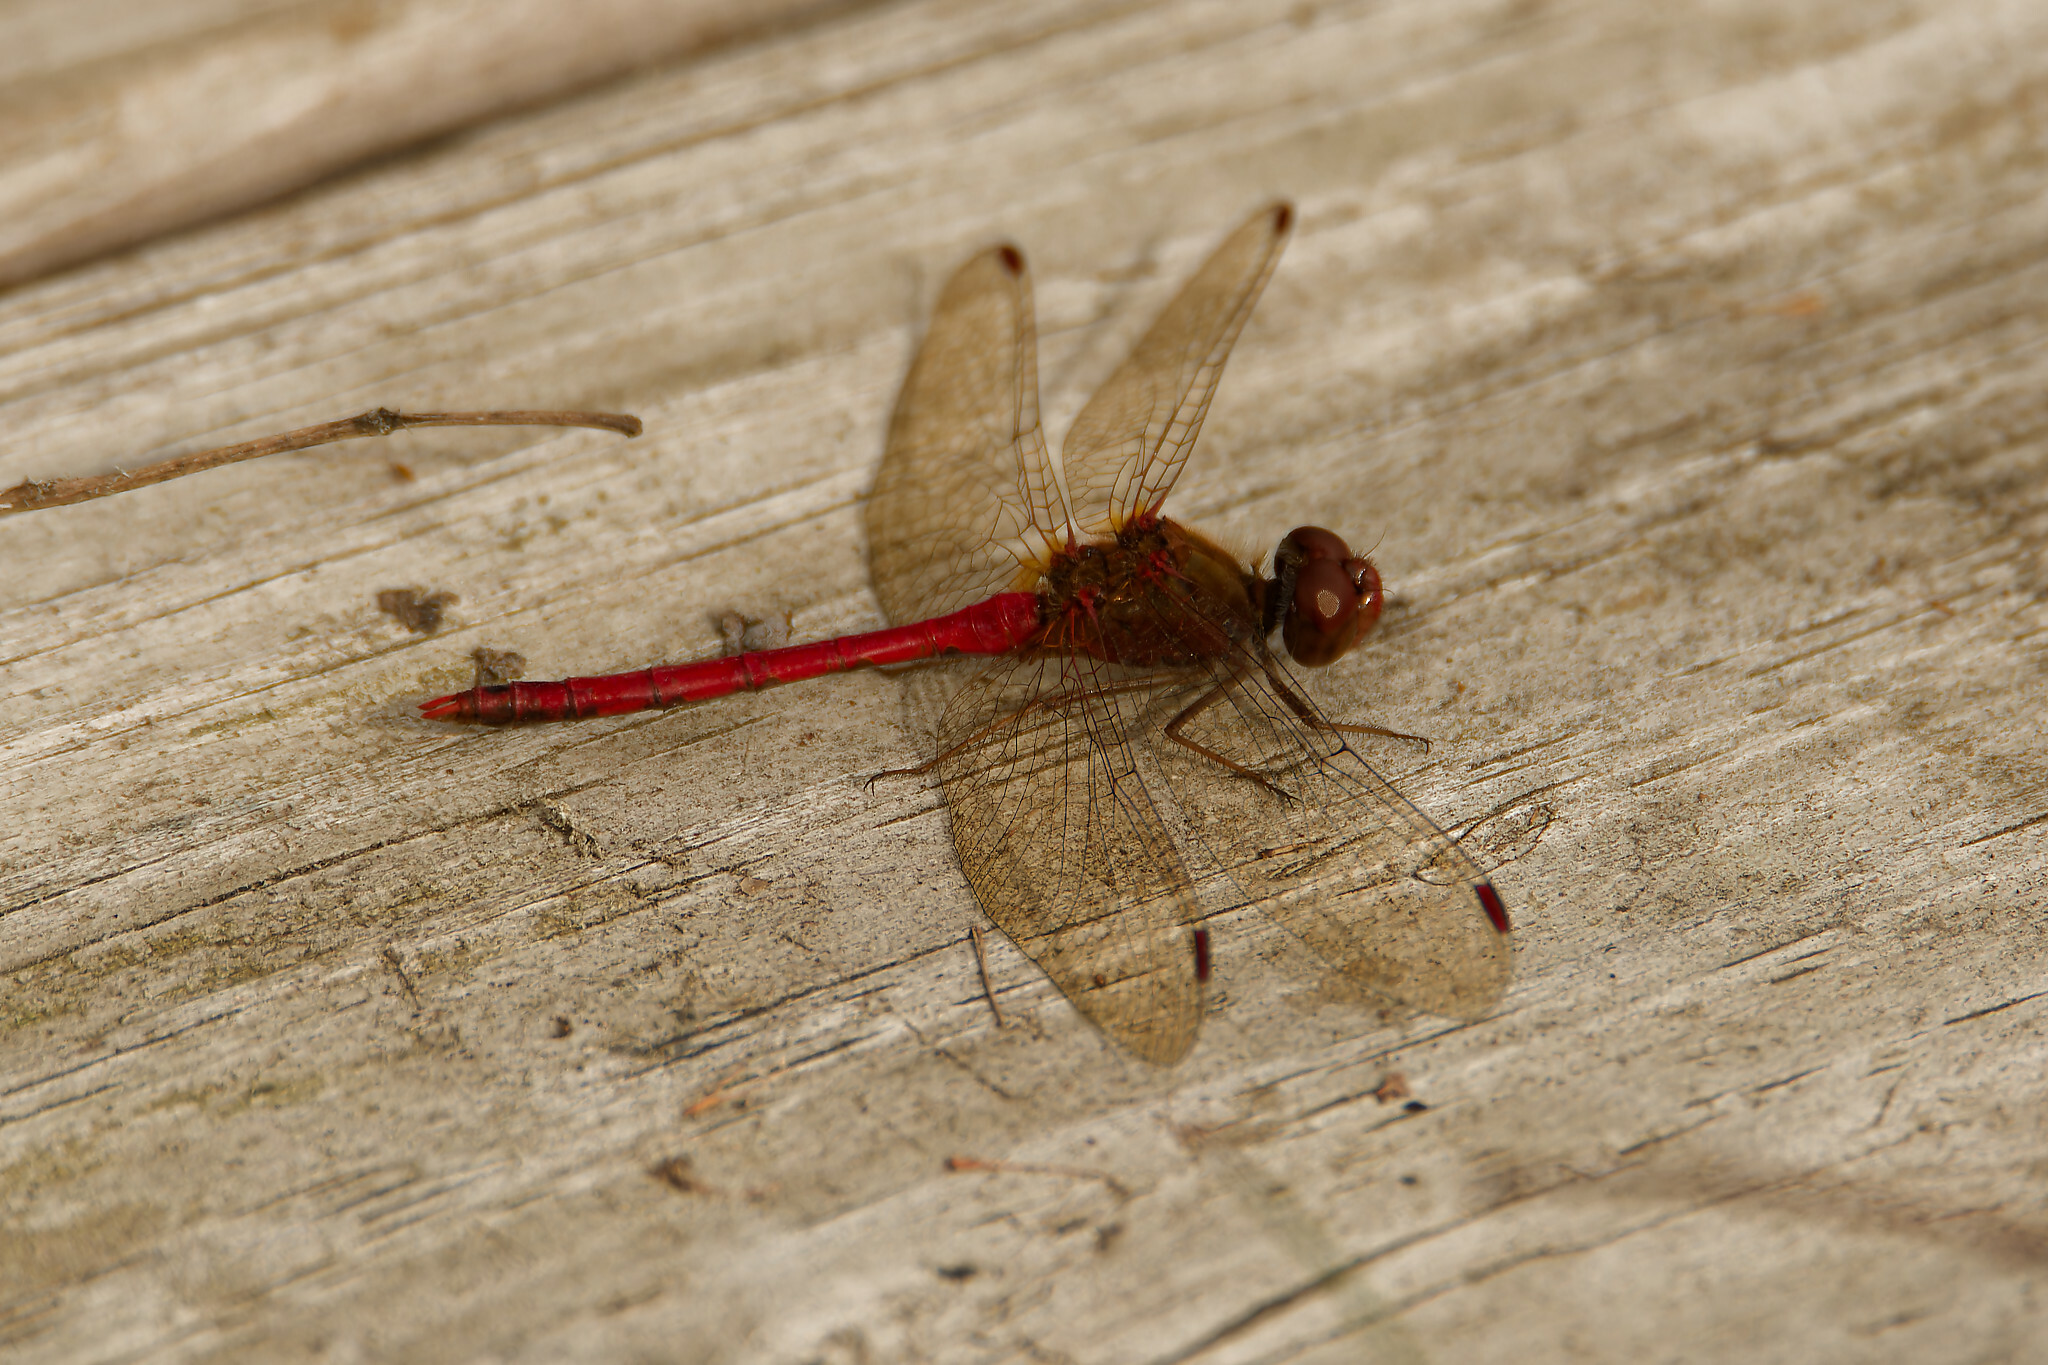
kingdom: Animalia
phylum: Arthropoda
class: Insecta
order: Odonata
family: Libellulidae
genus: Sympetrum
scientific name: Sympetrum vicinum
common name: Autumn meadowhawk
